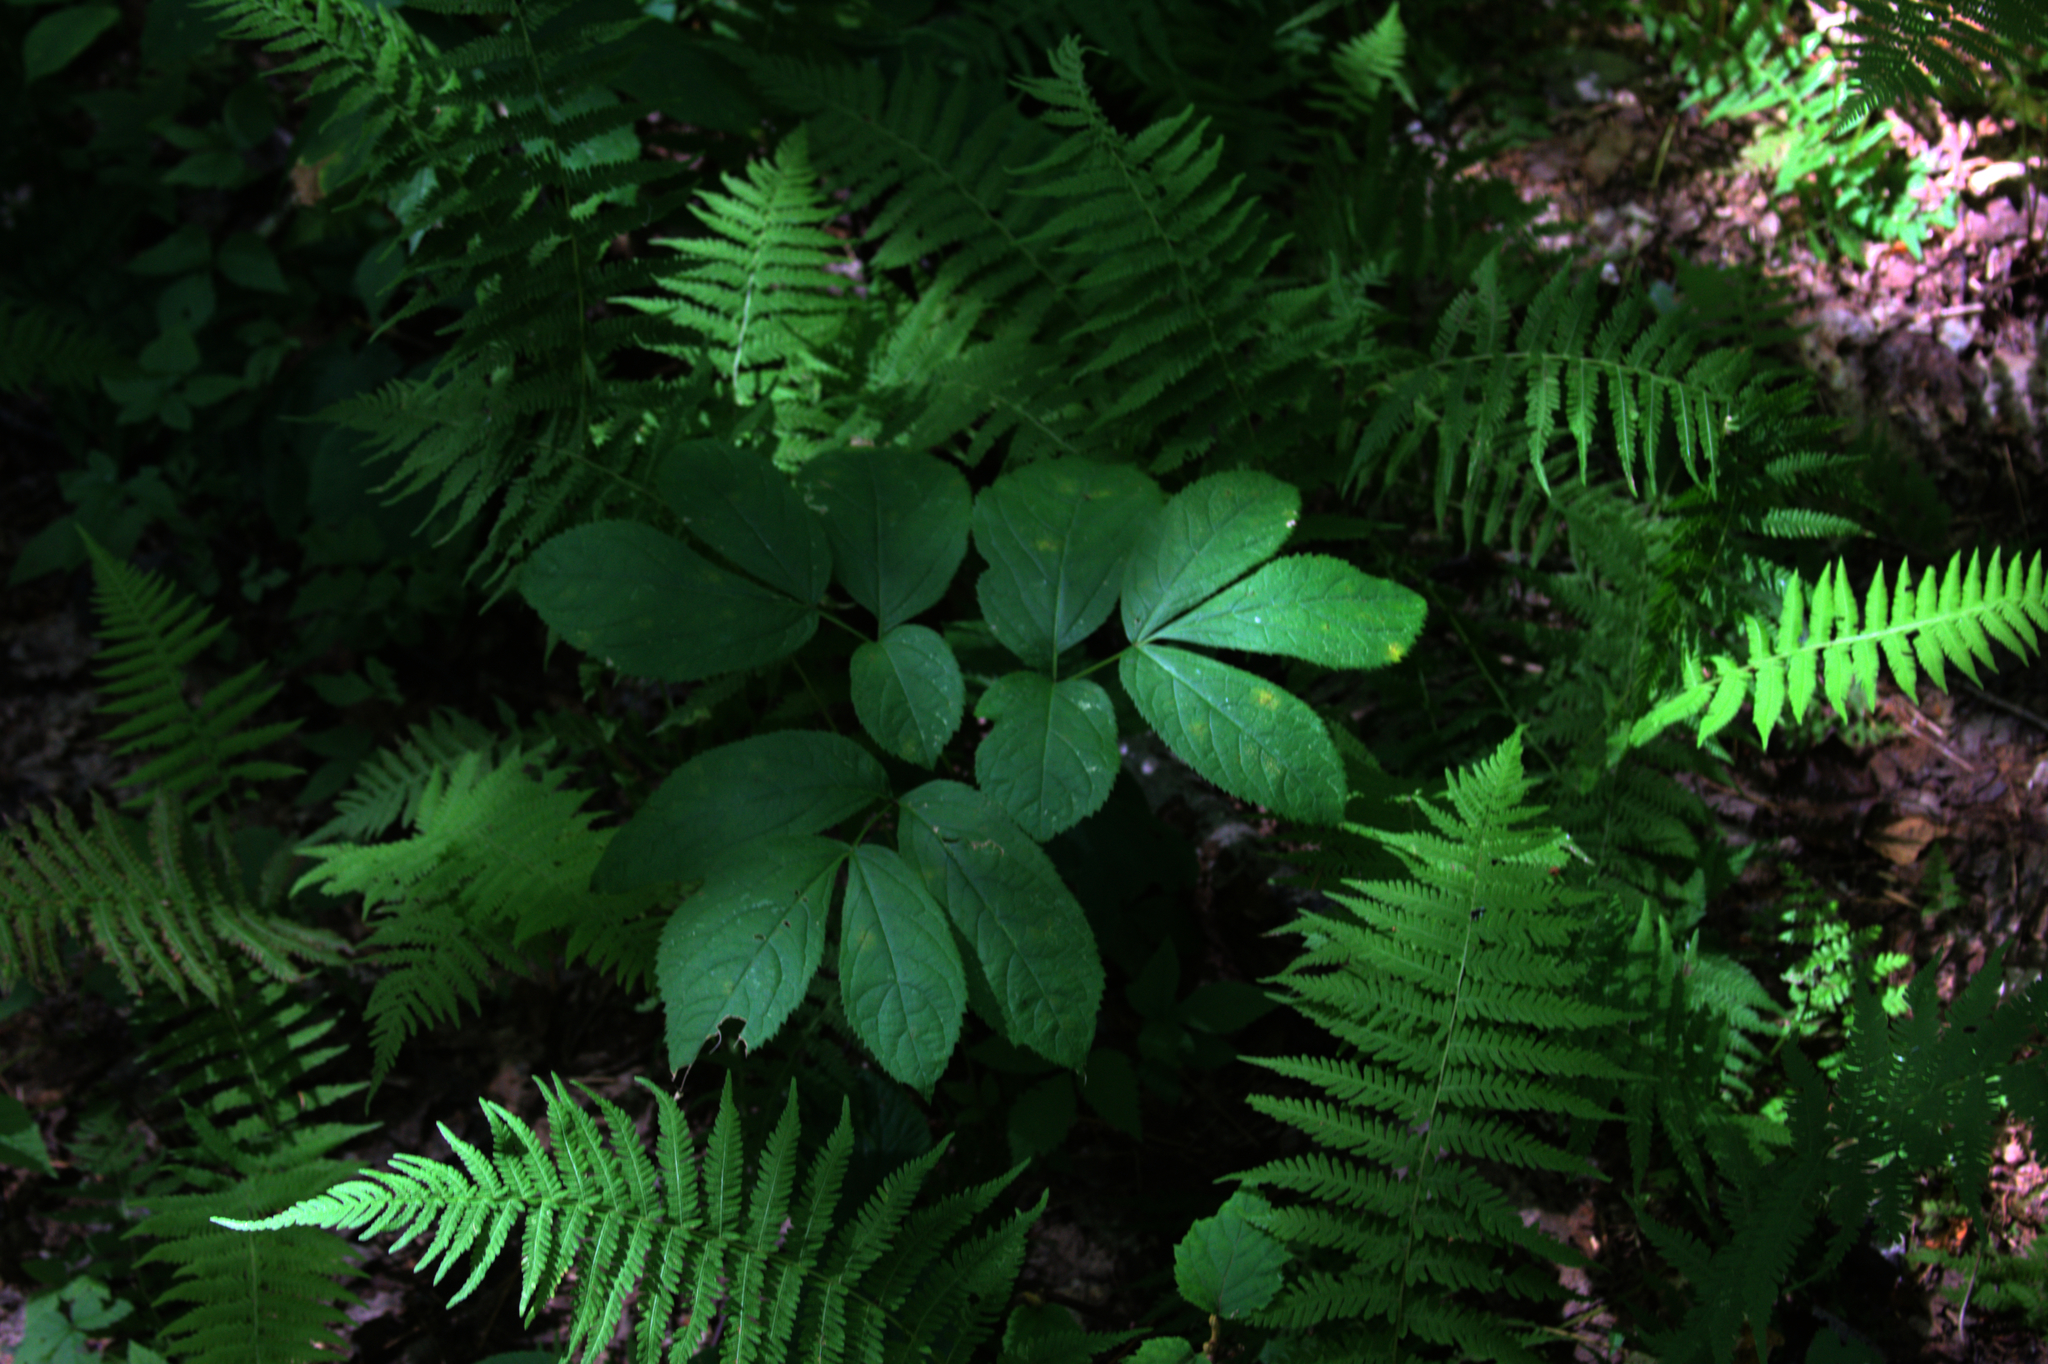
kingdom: Plantae
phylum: Tracheophyta
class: Magnoliopsida
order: Apiales
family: Araliaceae
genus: Aralia
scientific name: Aralia nudicaulis
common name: Wild sarsaparilla
